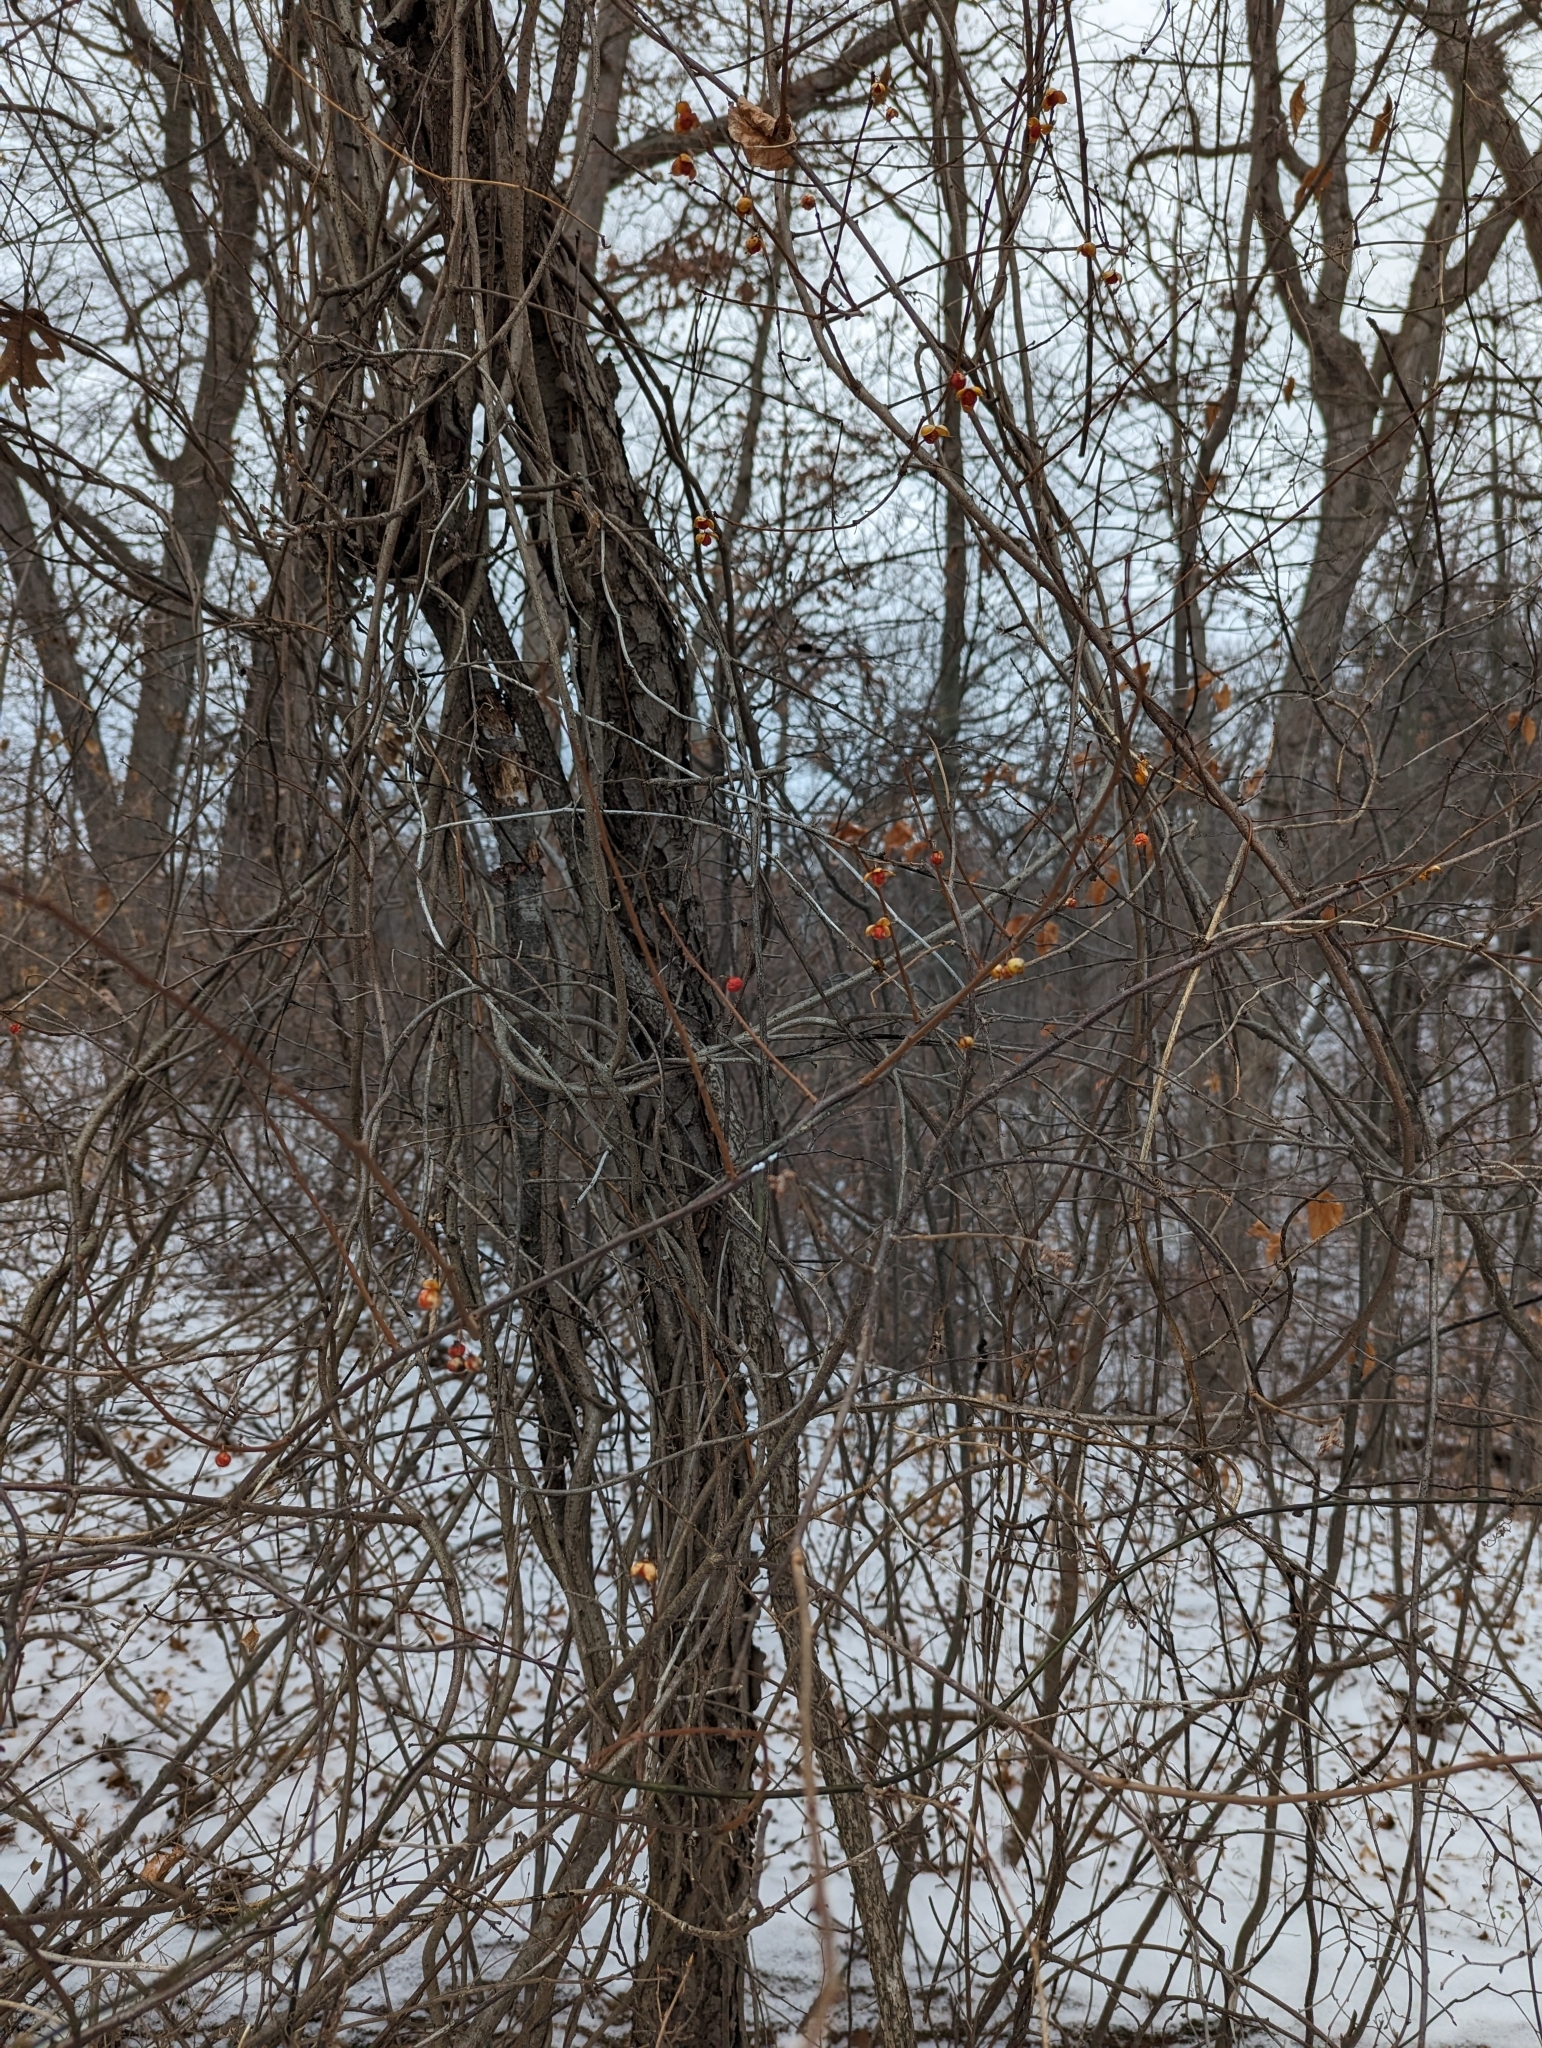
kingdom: Plantae
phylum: Tracheophyta
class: Magnoliopsida
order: Celastrales
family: Celastraceae
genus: Celastrus
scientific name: Celastrus orbiculatus
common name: Oriental bittersweet
